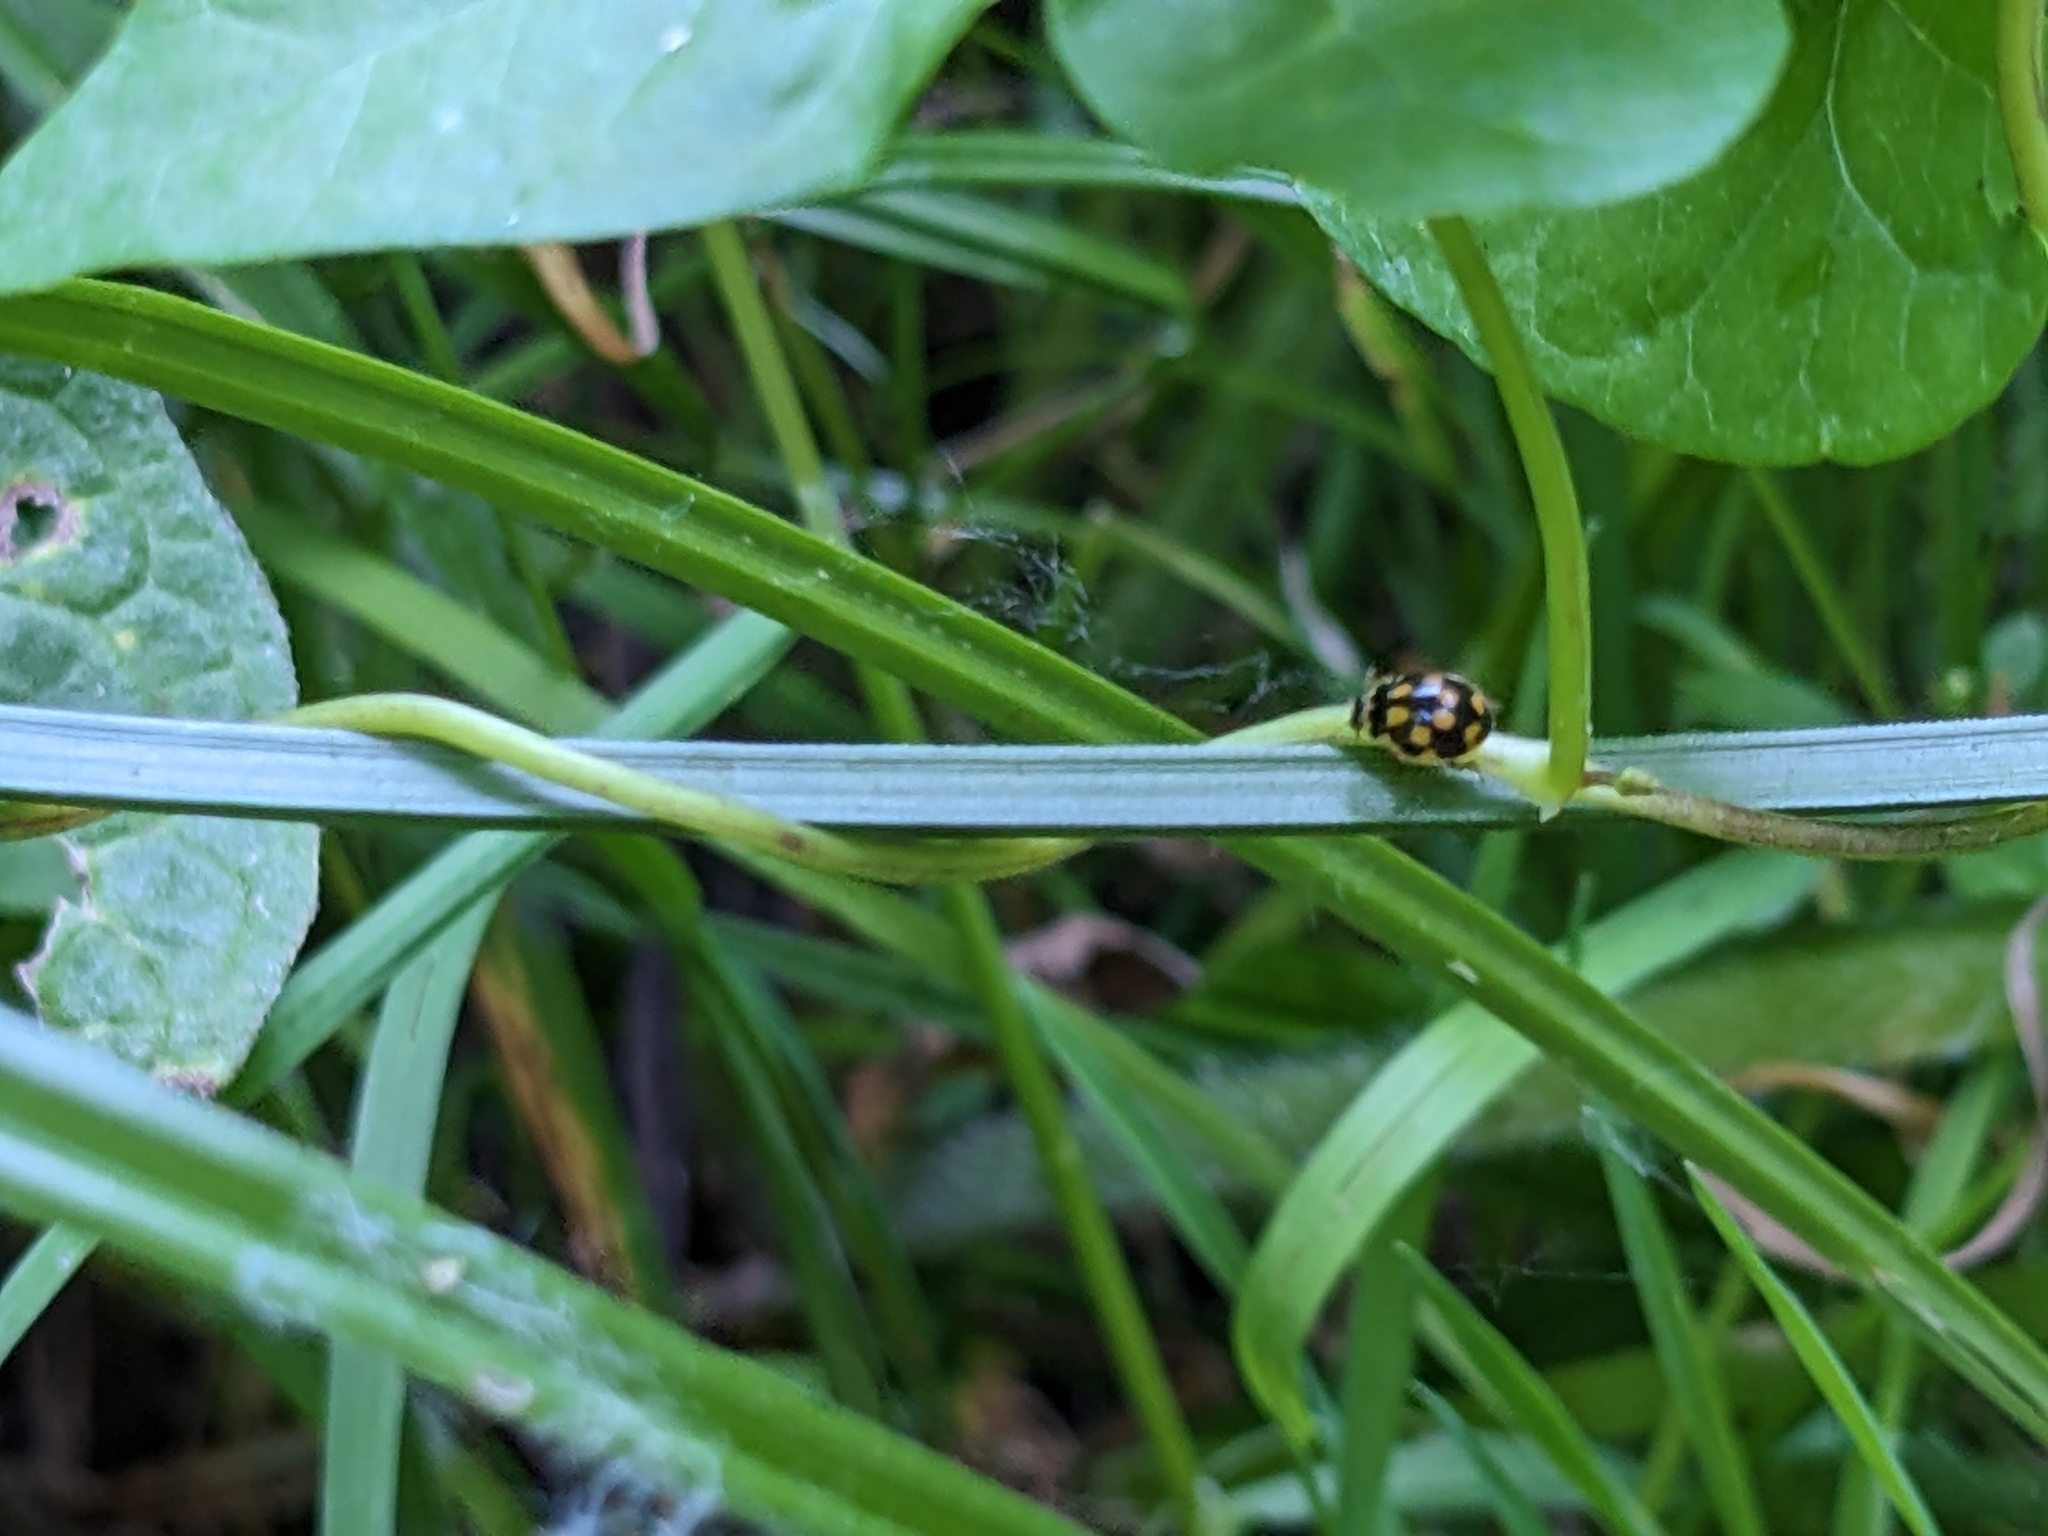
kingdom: Animalia
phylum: Arthropoda
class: Insecta
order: Coleoptera
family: Coccinellidae
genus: Propylaea
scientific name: Propylaea quatuordecimpunctata
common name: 14-spotted ladybird beetle
